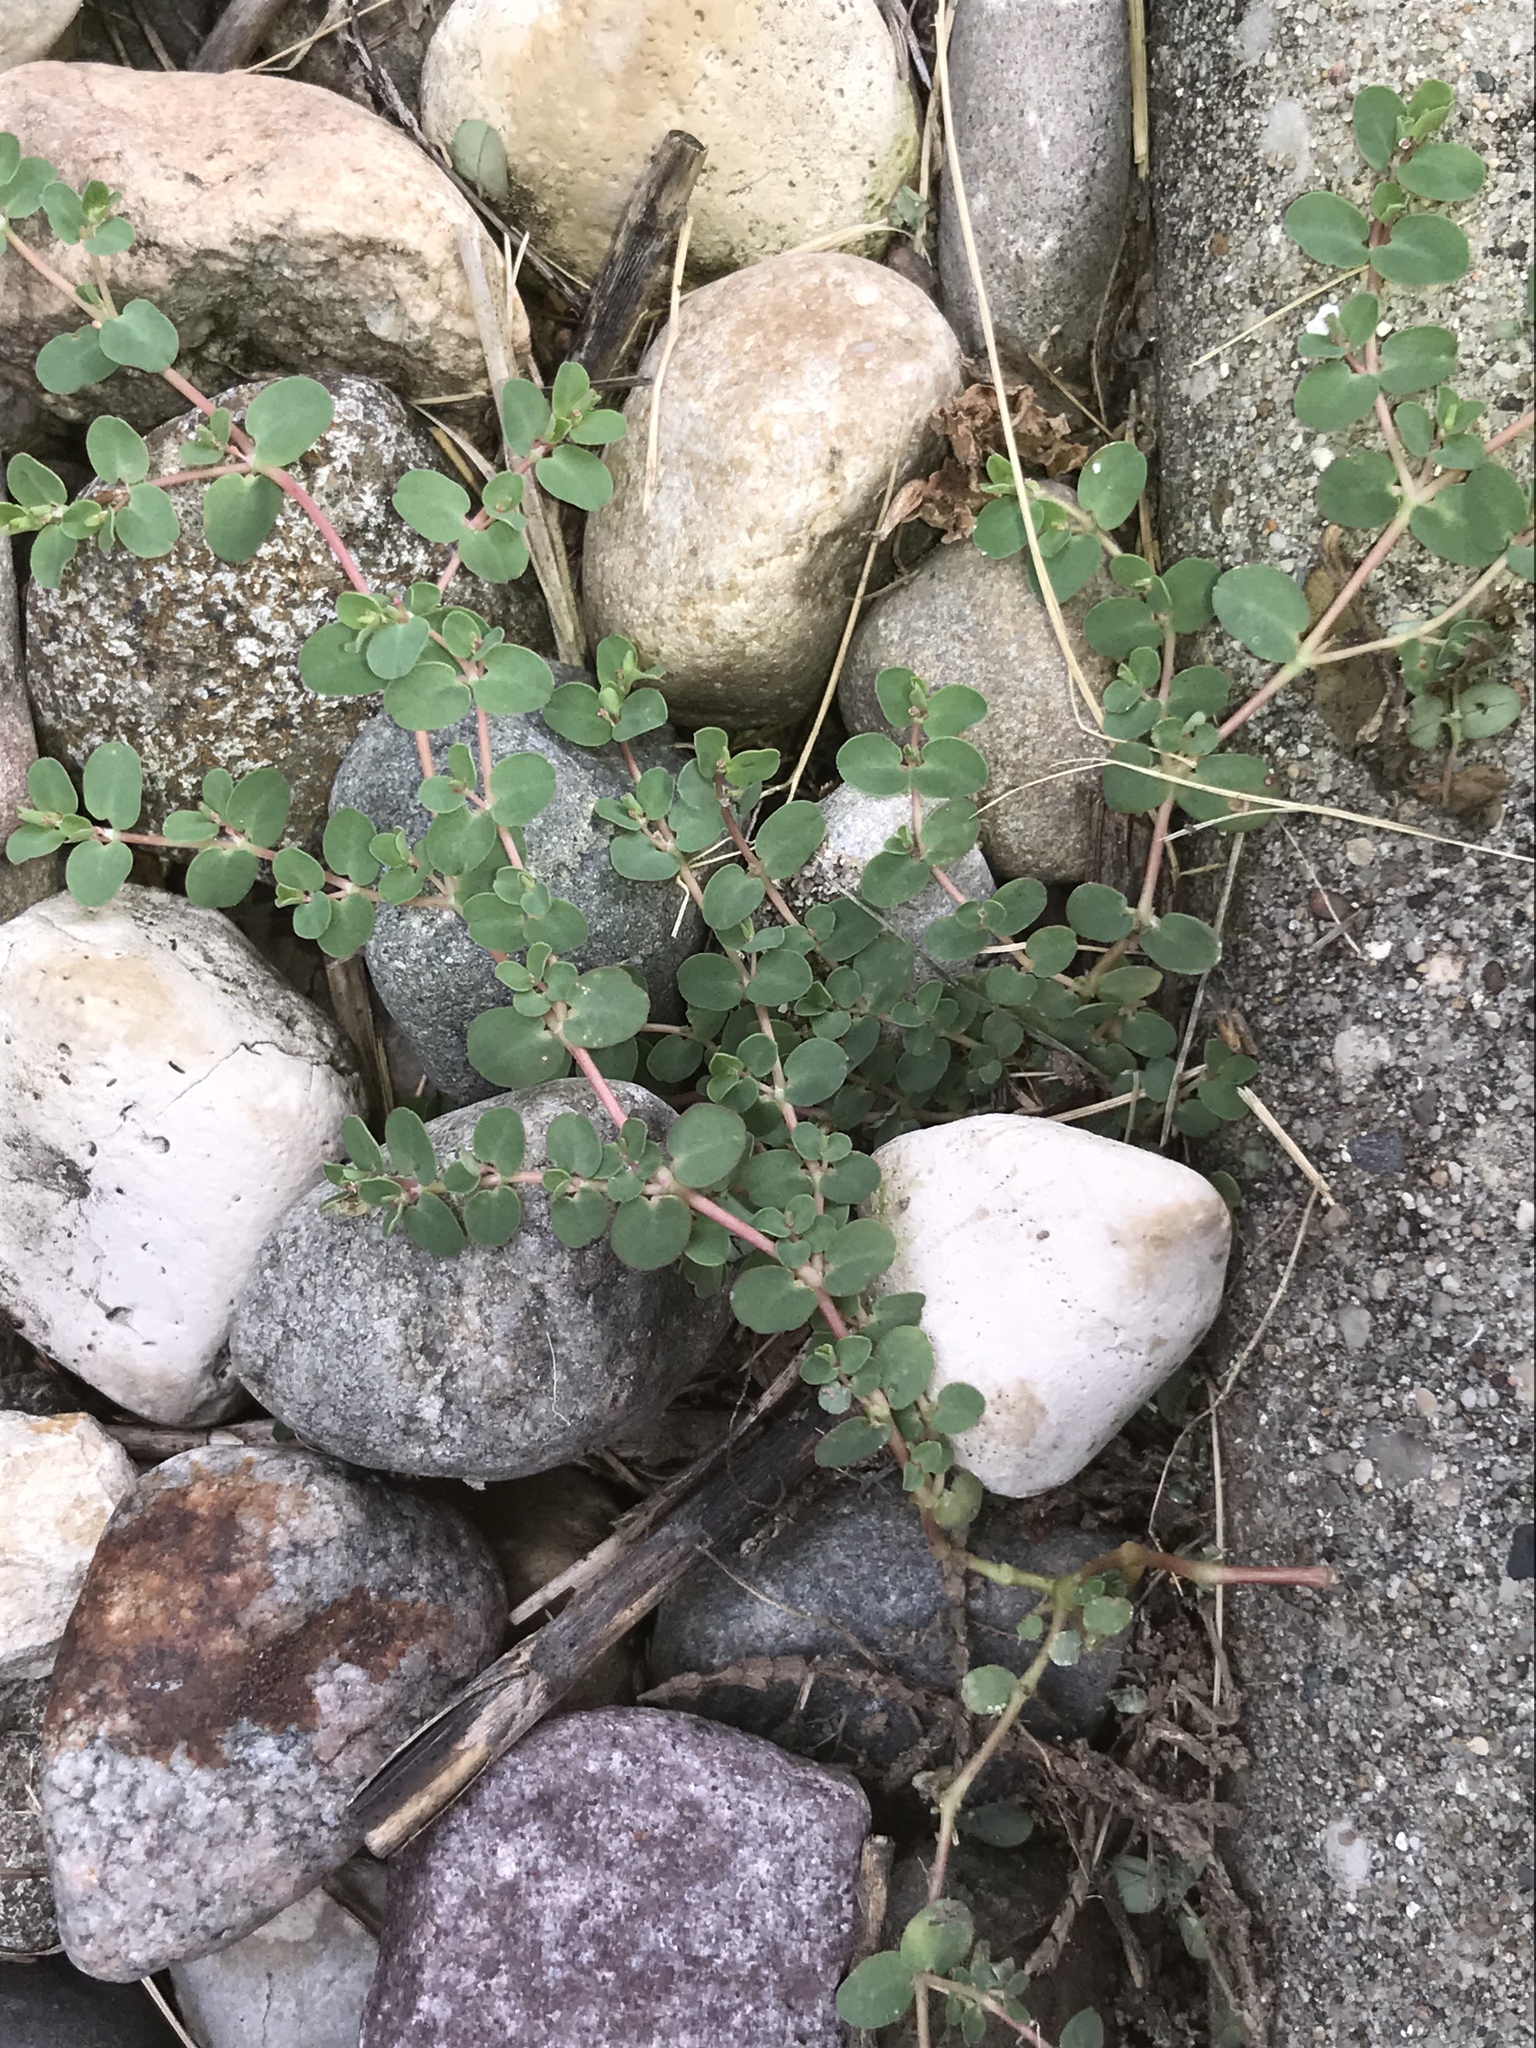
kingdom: Plantae
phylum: Tracheophyta
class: Magnoliopsida
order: Malpighiales
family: Euphorbiaceae
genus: Euphorbia
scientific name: Euphorbia serpens
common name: Matted sandmat
